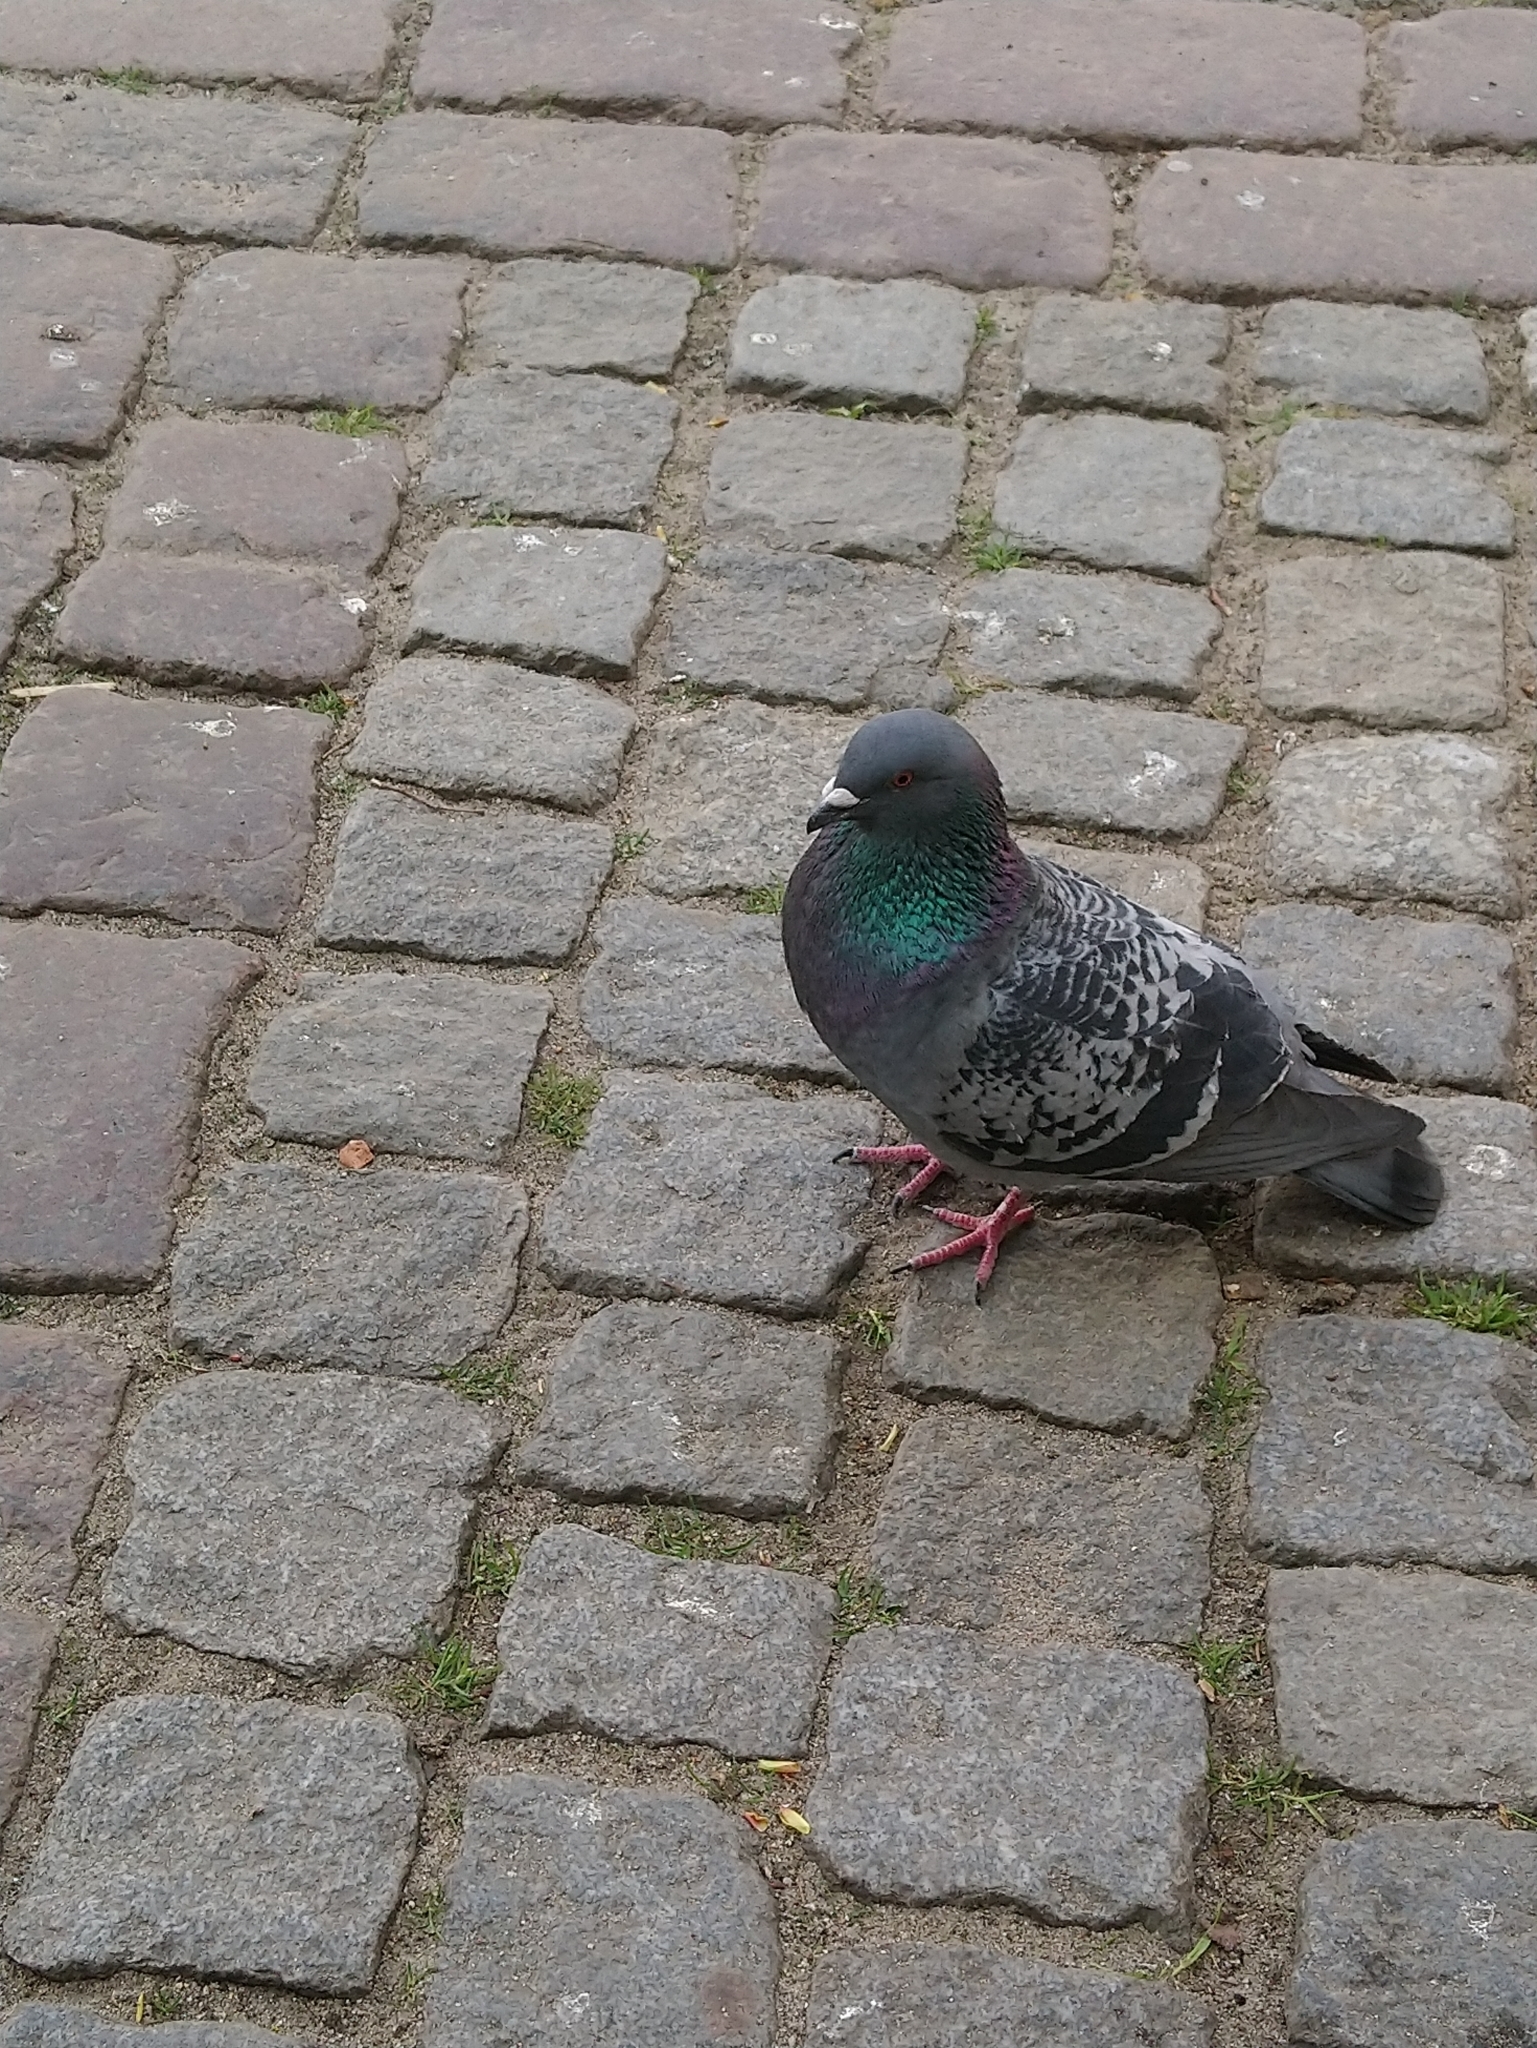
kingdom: Animalia
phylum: Chordata
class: Aves
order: Columbiformes
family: Columbidae
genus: Columba
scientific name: Columba livia
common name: Rock pigeon
